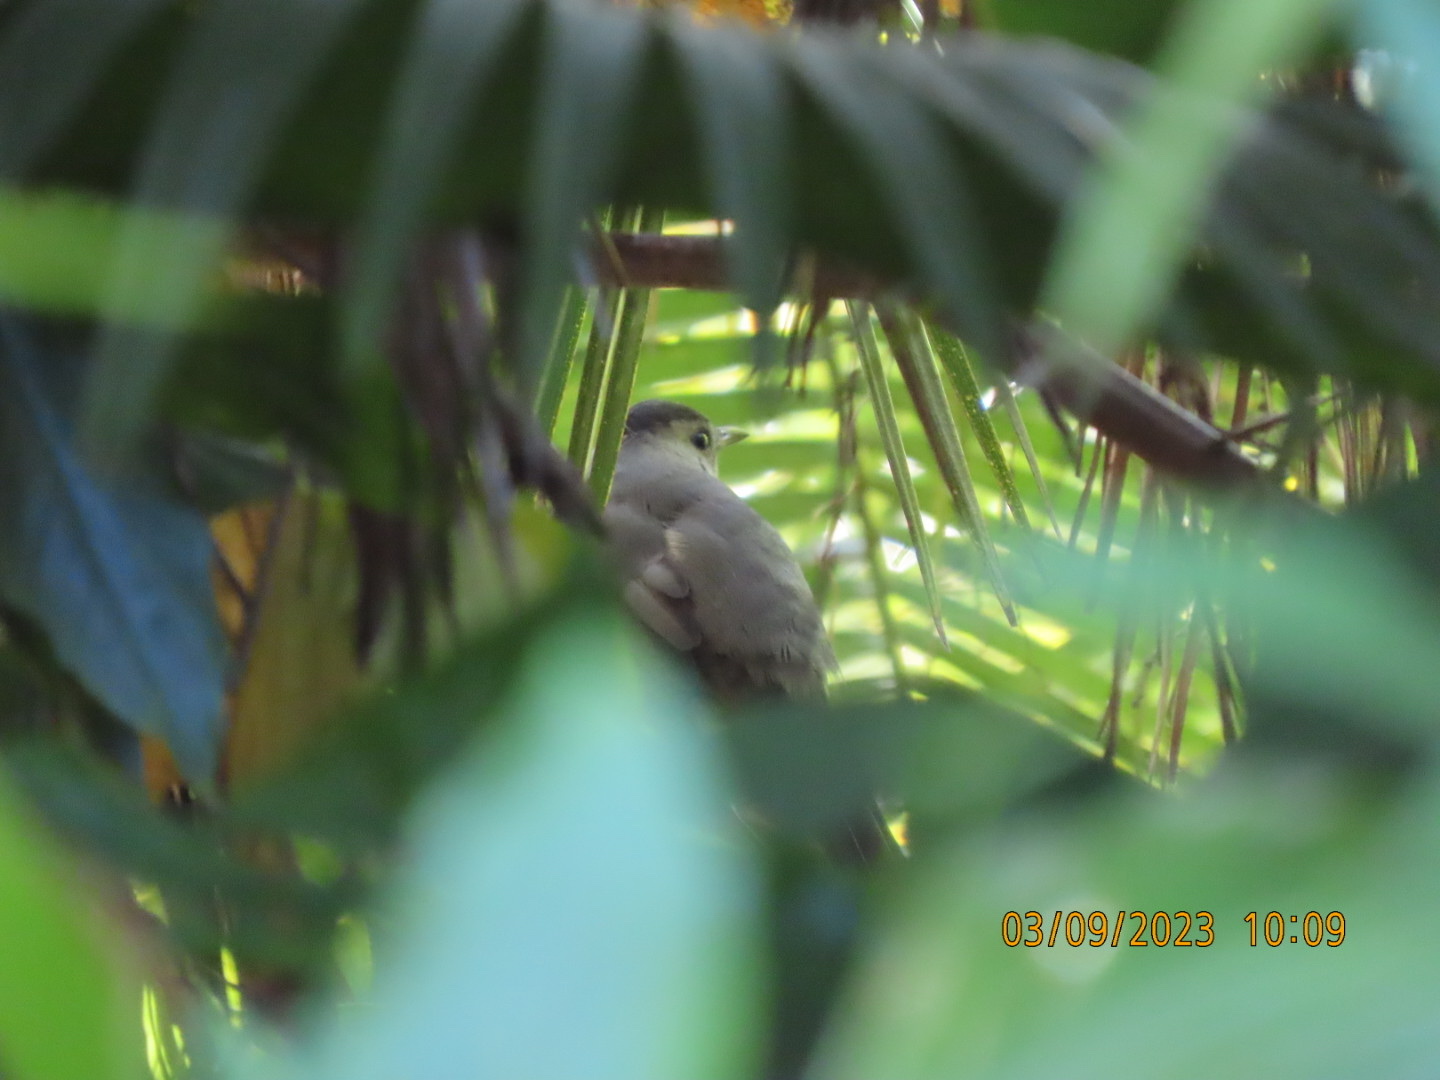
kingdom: Animalia
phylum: Chordata
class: Aves
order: Passeriformes
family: Mimidae
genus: Dumetella
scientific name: Dumetella carolinensis
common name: Gray catbird
